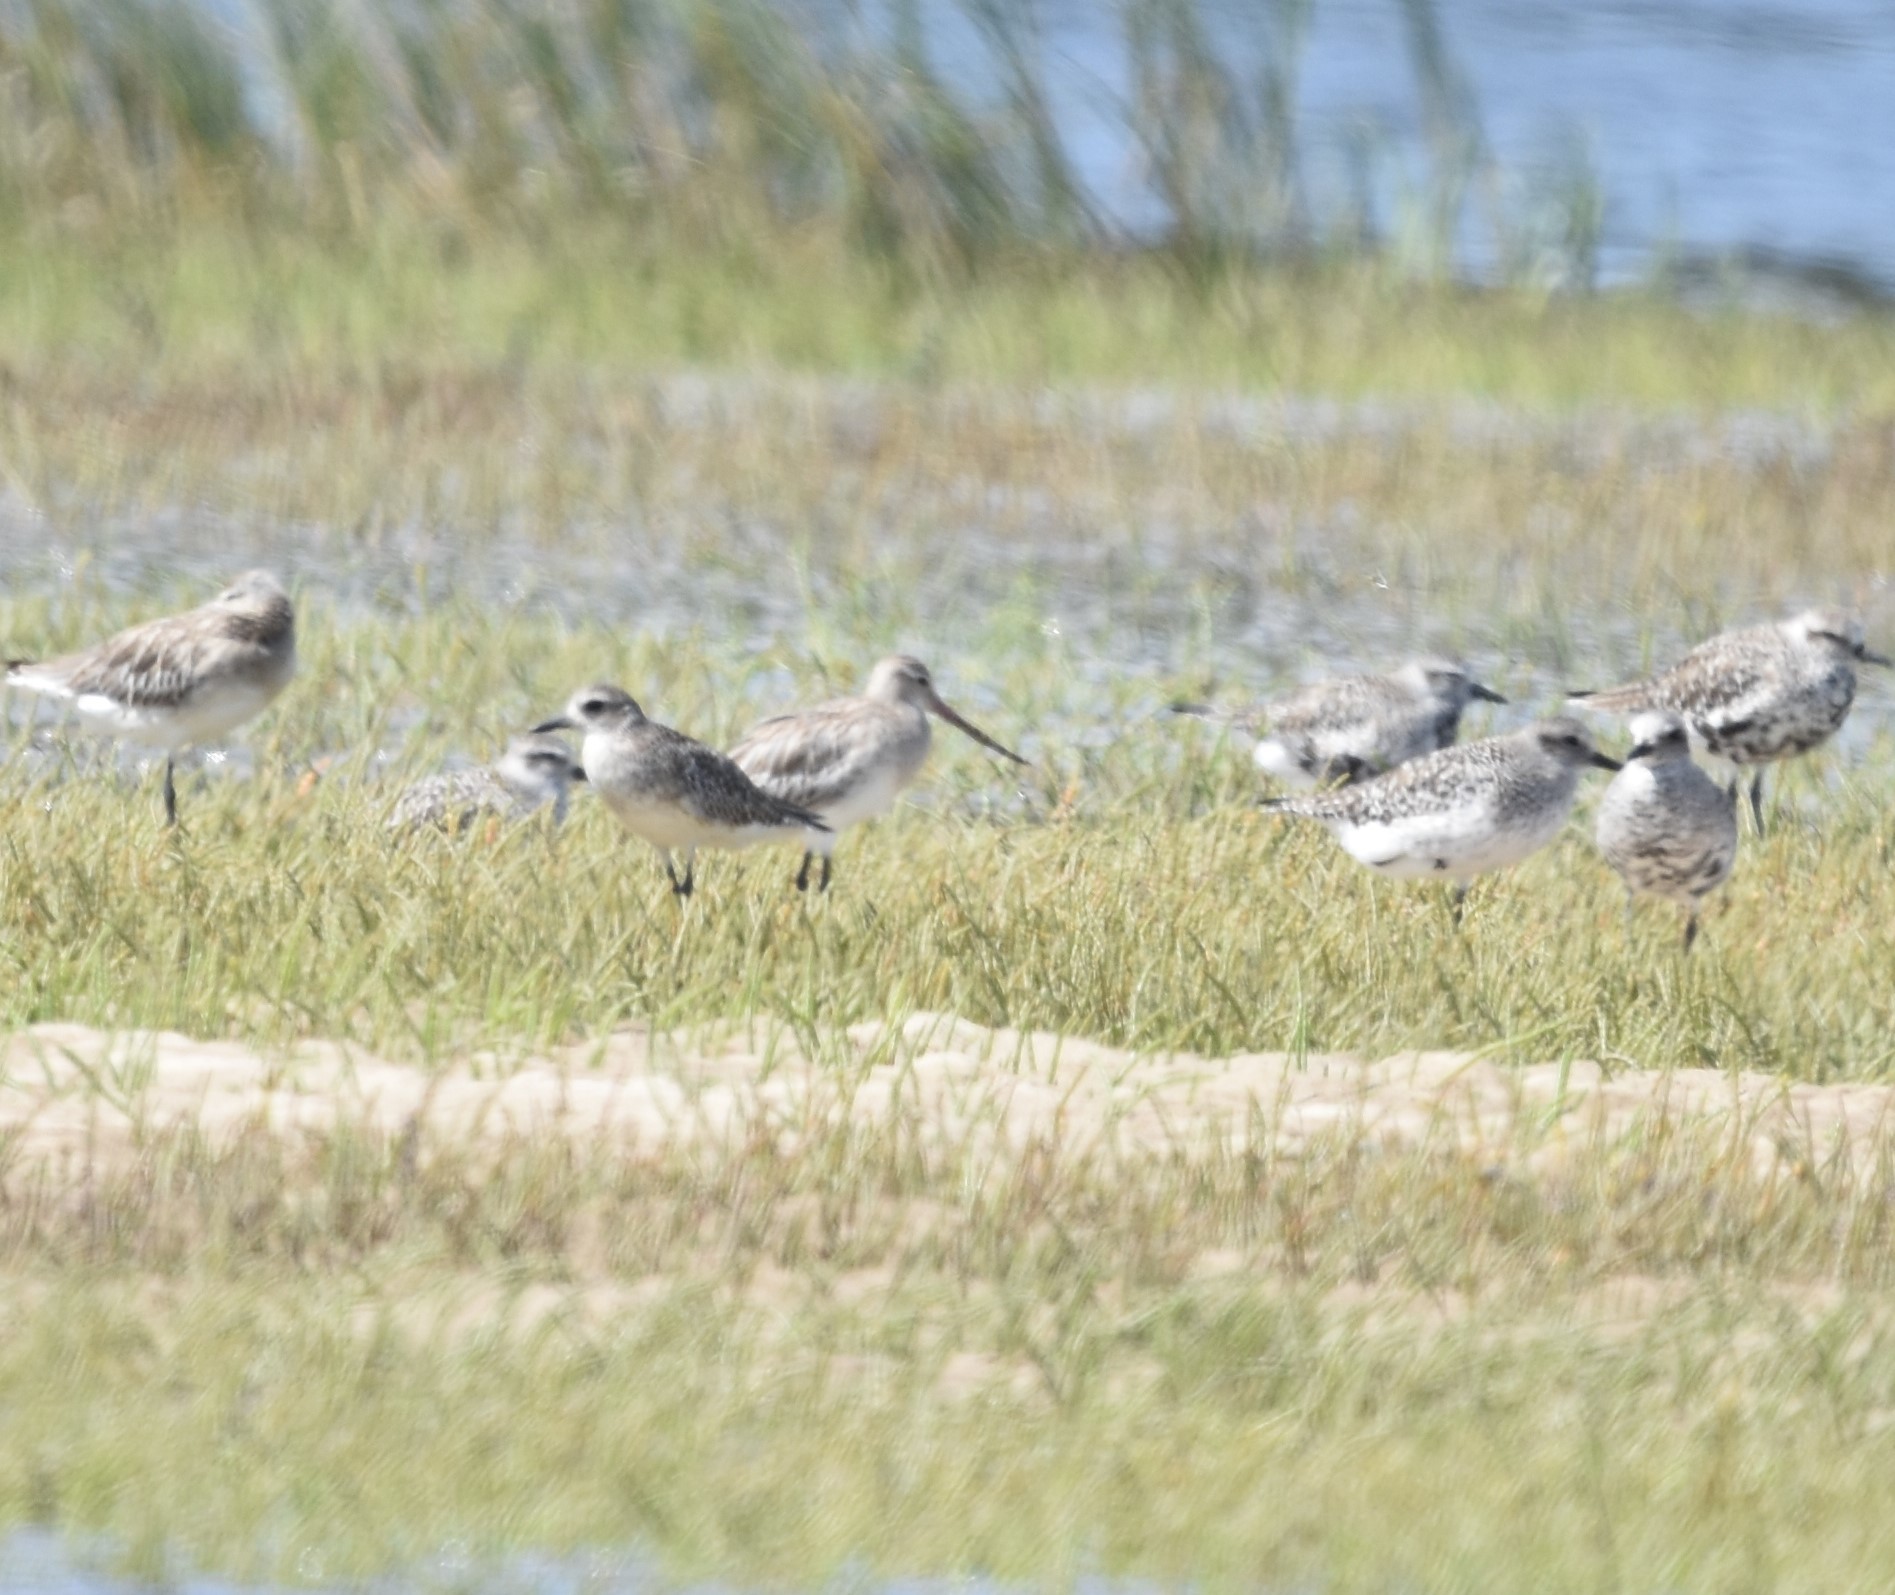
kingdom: Animalia
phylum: Chordata
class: Aves
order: Charadriiformes
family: Scolopacidae
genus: Limosa
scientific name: Limosa lapponica
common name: Bar-tailed godwit
